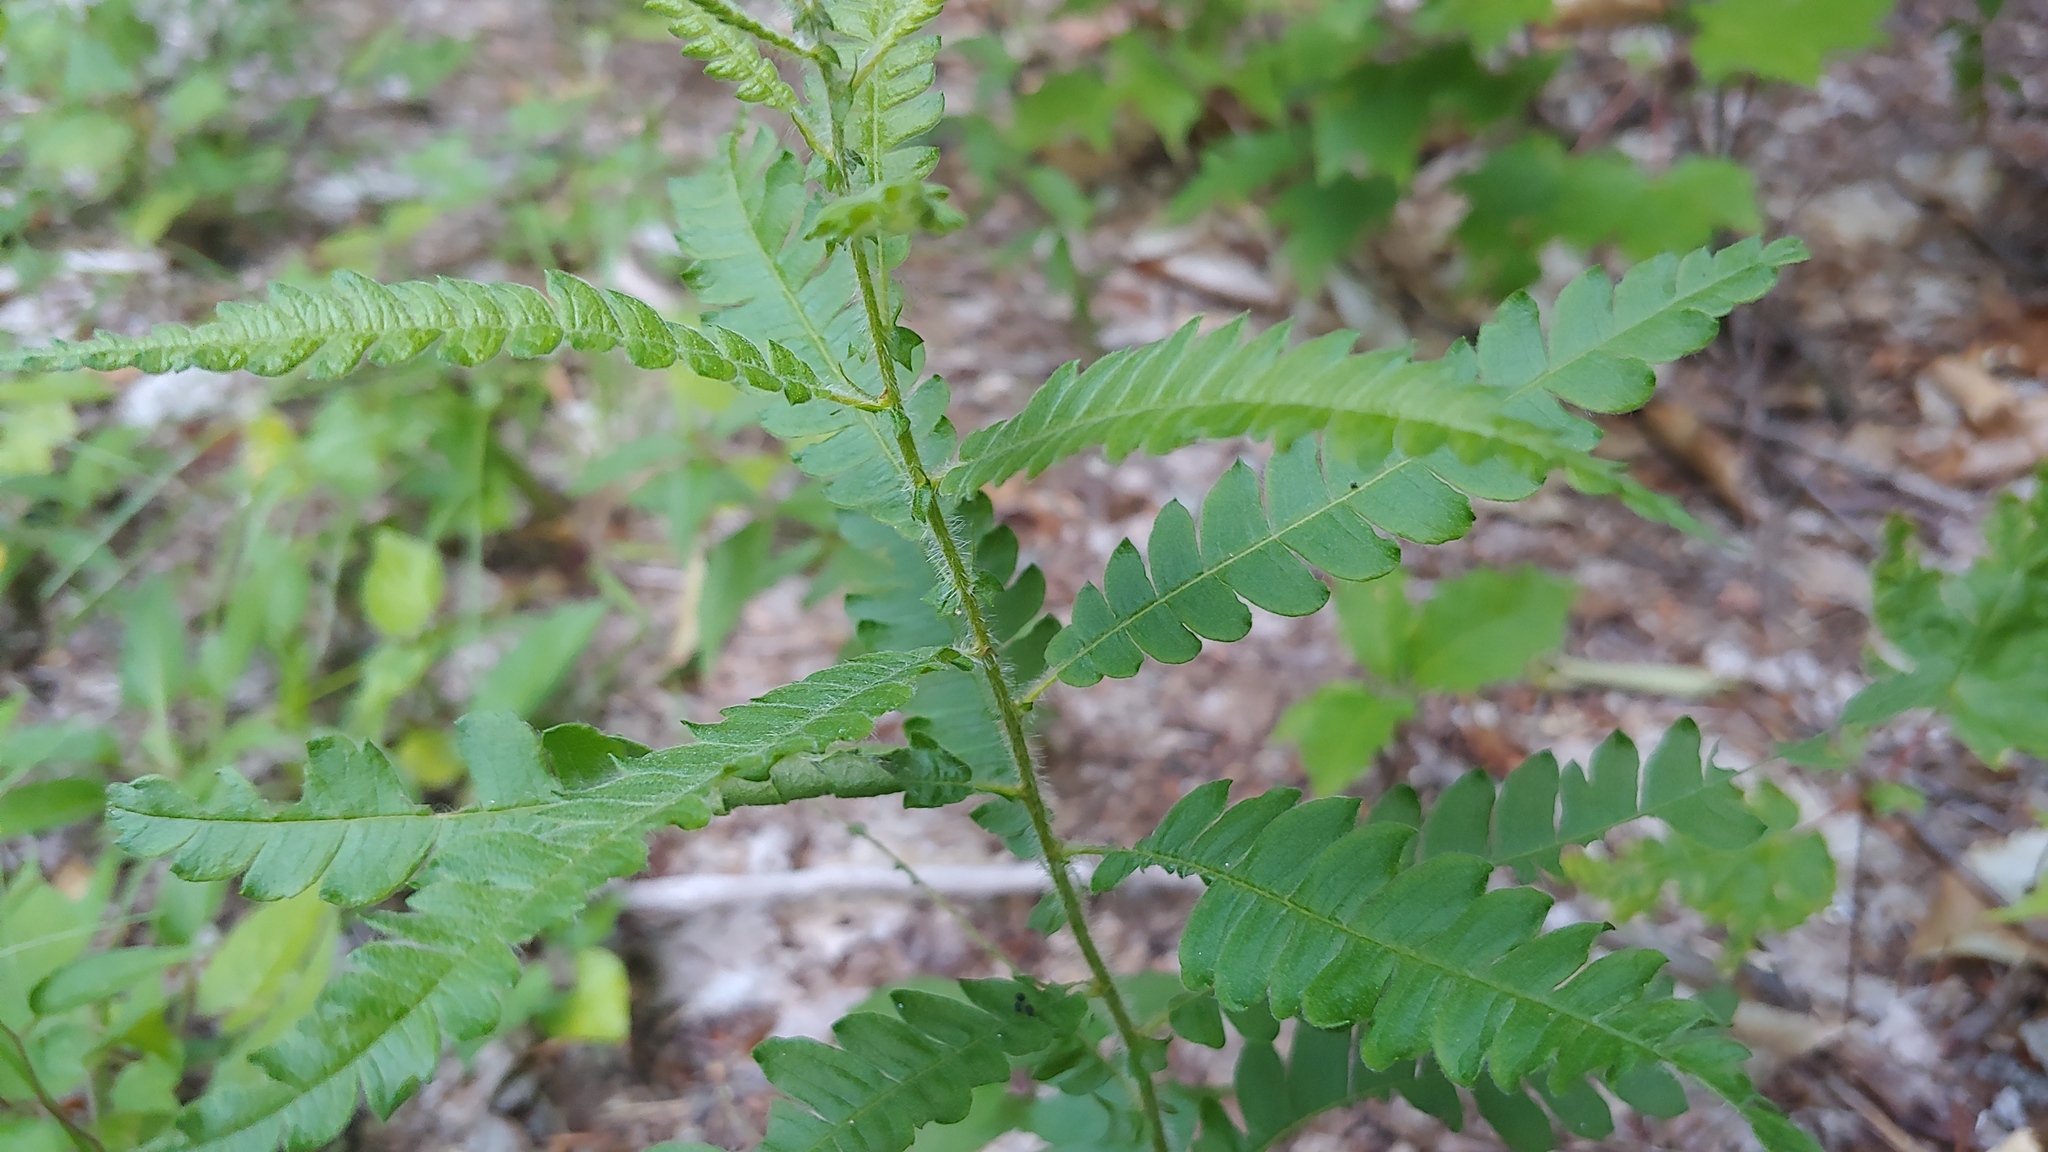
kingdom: Plantae
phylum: Tracheophyta
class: Magnoliopsida
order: Fagales
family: Myricaceae
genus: Comptonia
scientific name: Comptonia peregrina
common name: Sweet-fern
